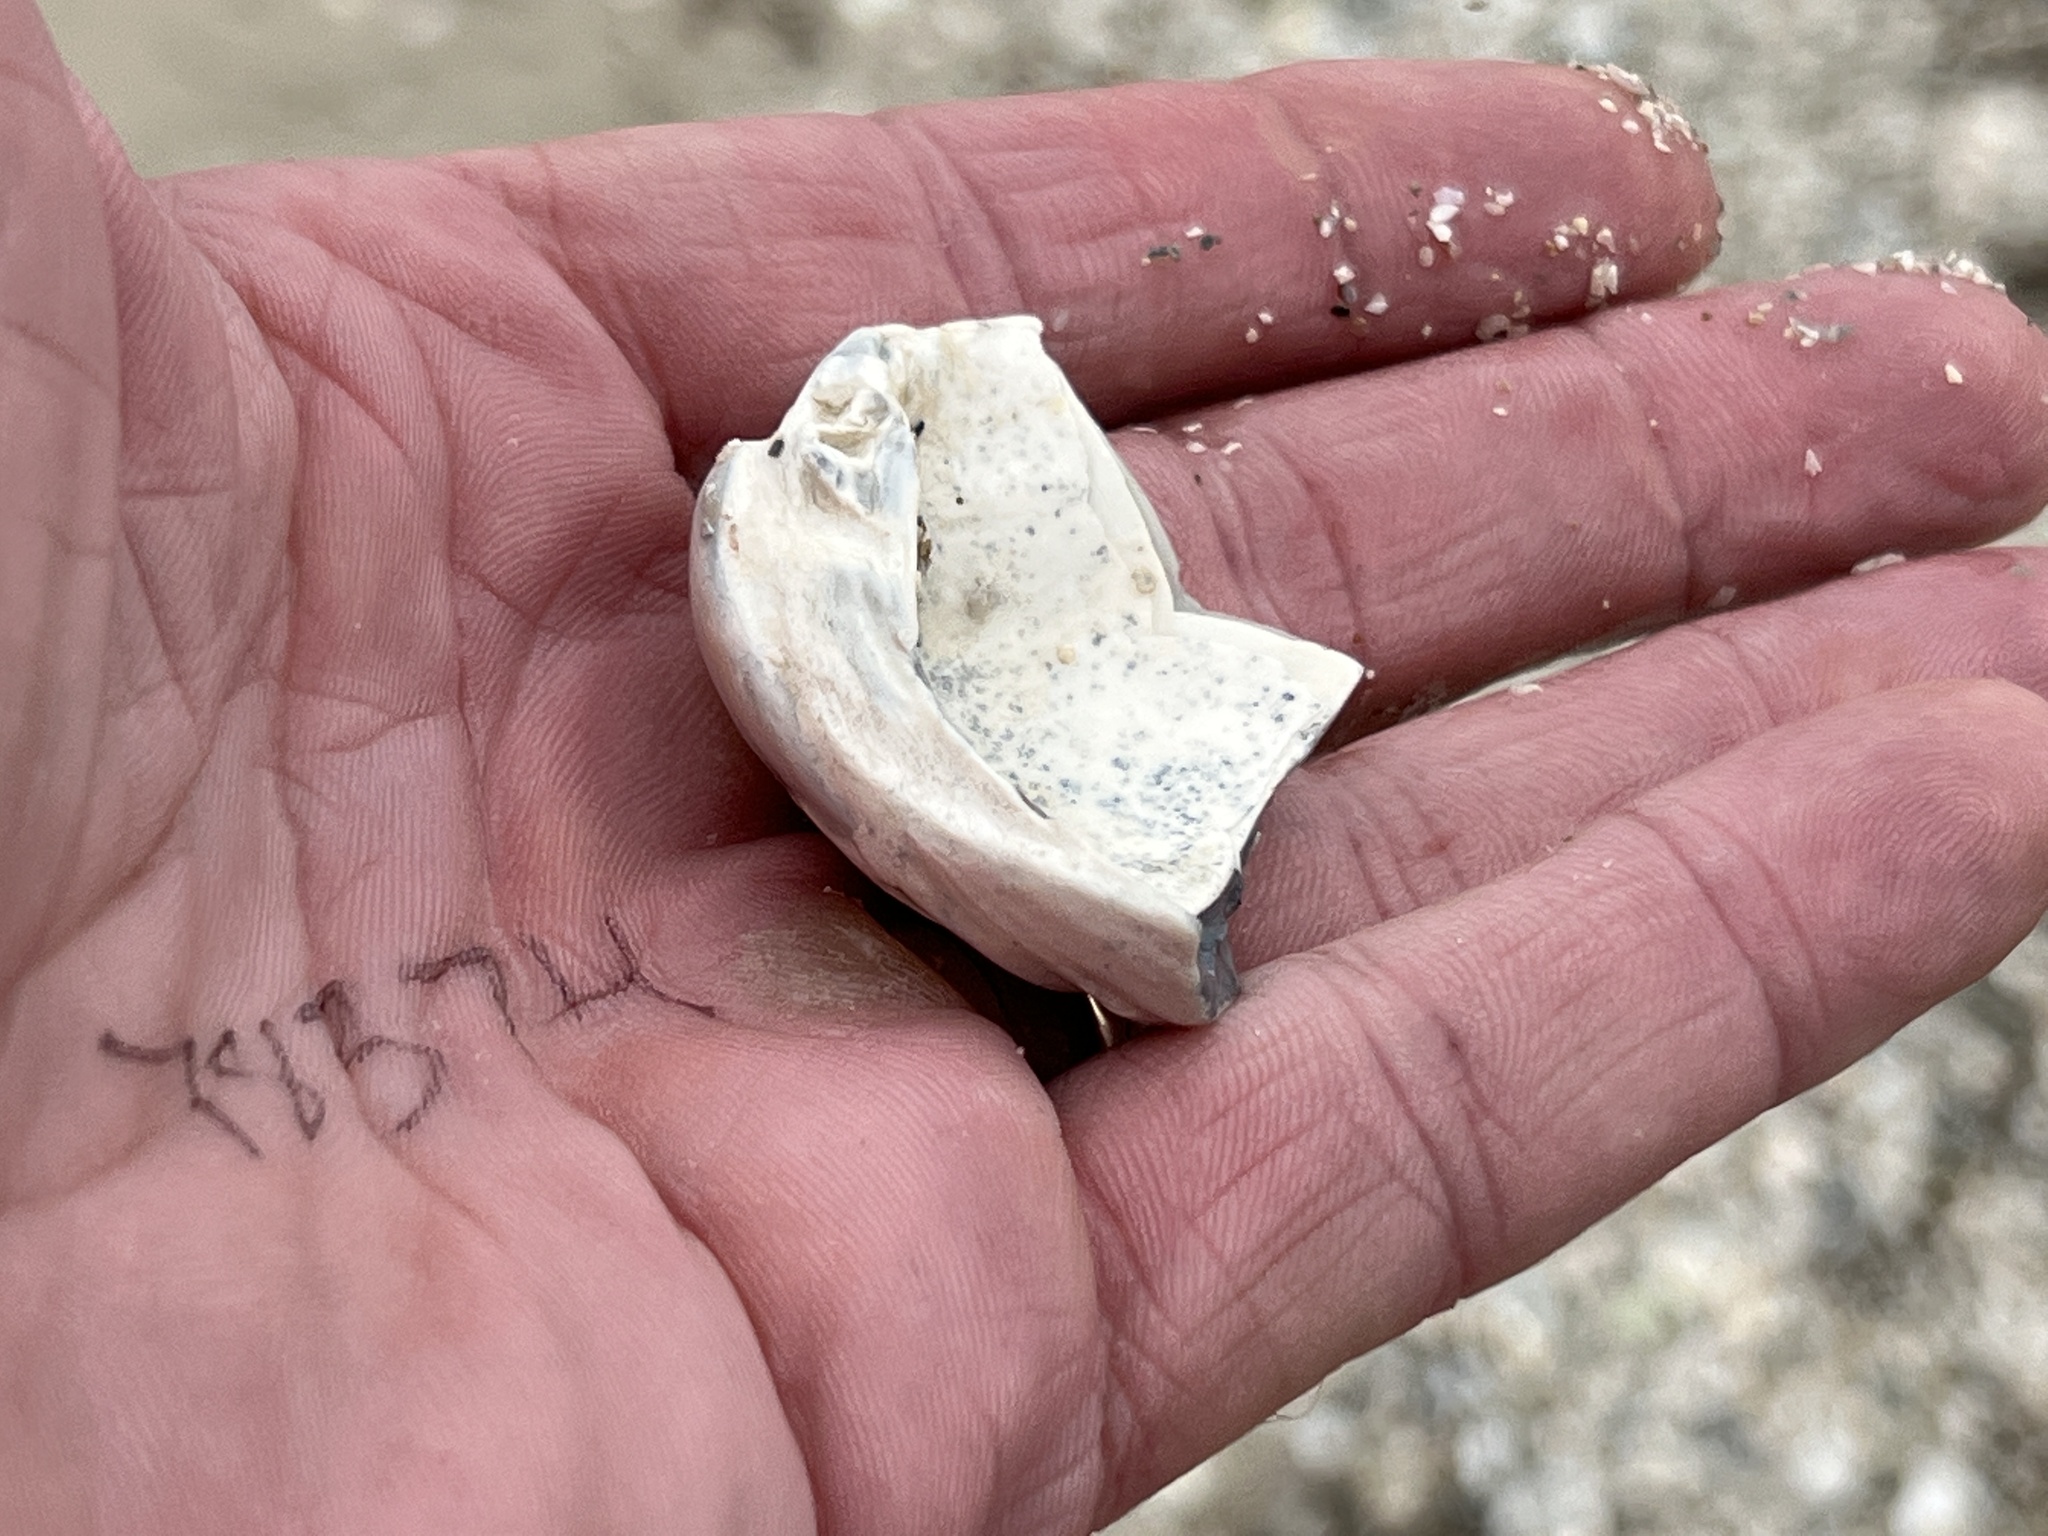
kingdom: Animalia
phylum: Mollusca
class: Bivalvia
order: Venerida
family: Mactridae
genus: Rangia
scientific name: Rangia cuneata
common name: Atlantic rangia
